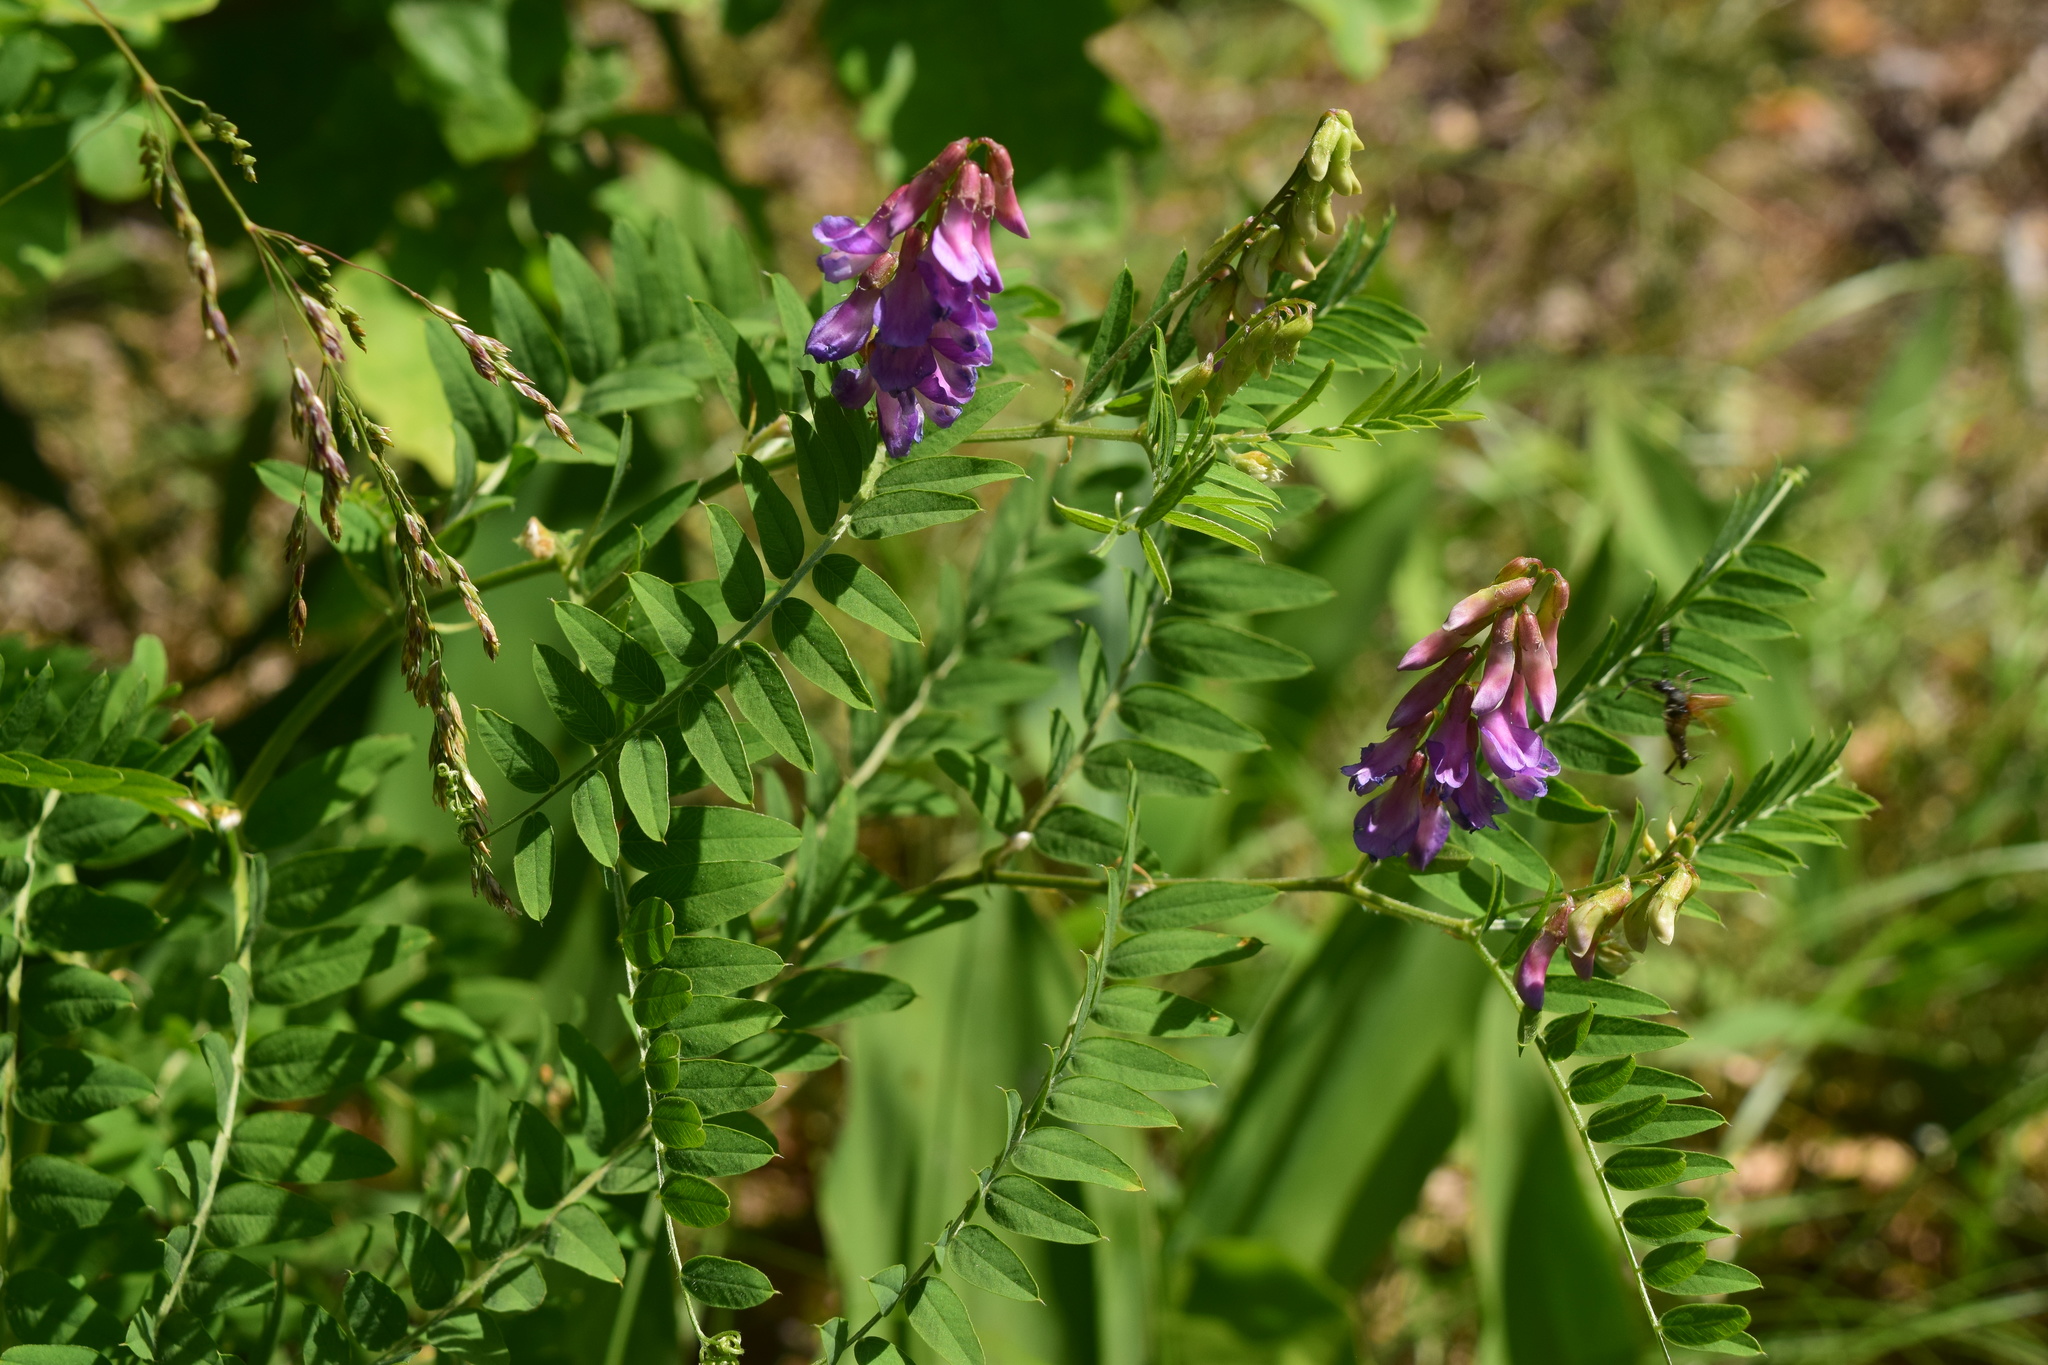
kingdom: Plantae
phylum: Tracheophyta
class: Magnoliopsida
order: Fabales
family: Fabaceae
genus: Vicia
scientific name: Vicia cassubica
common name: Danzig vetch
